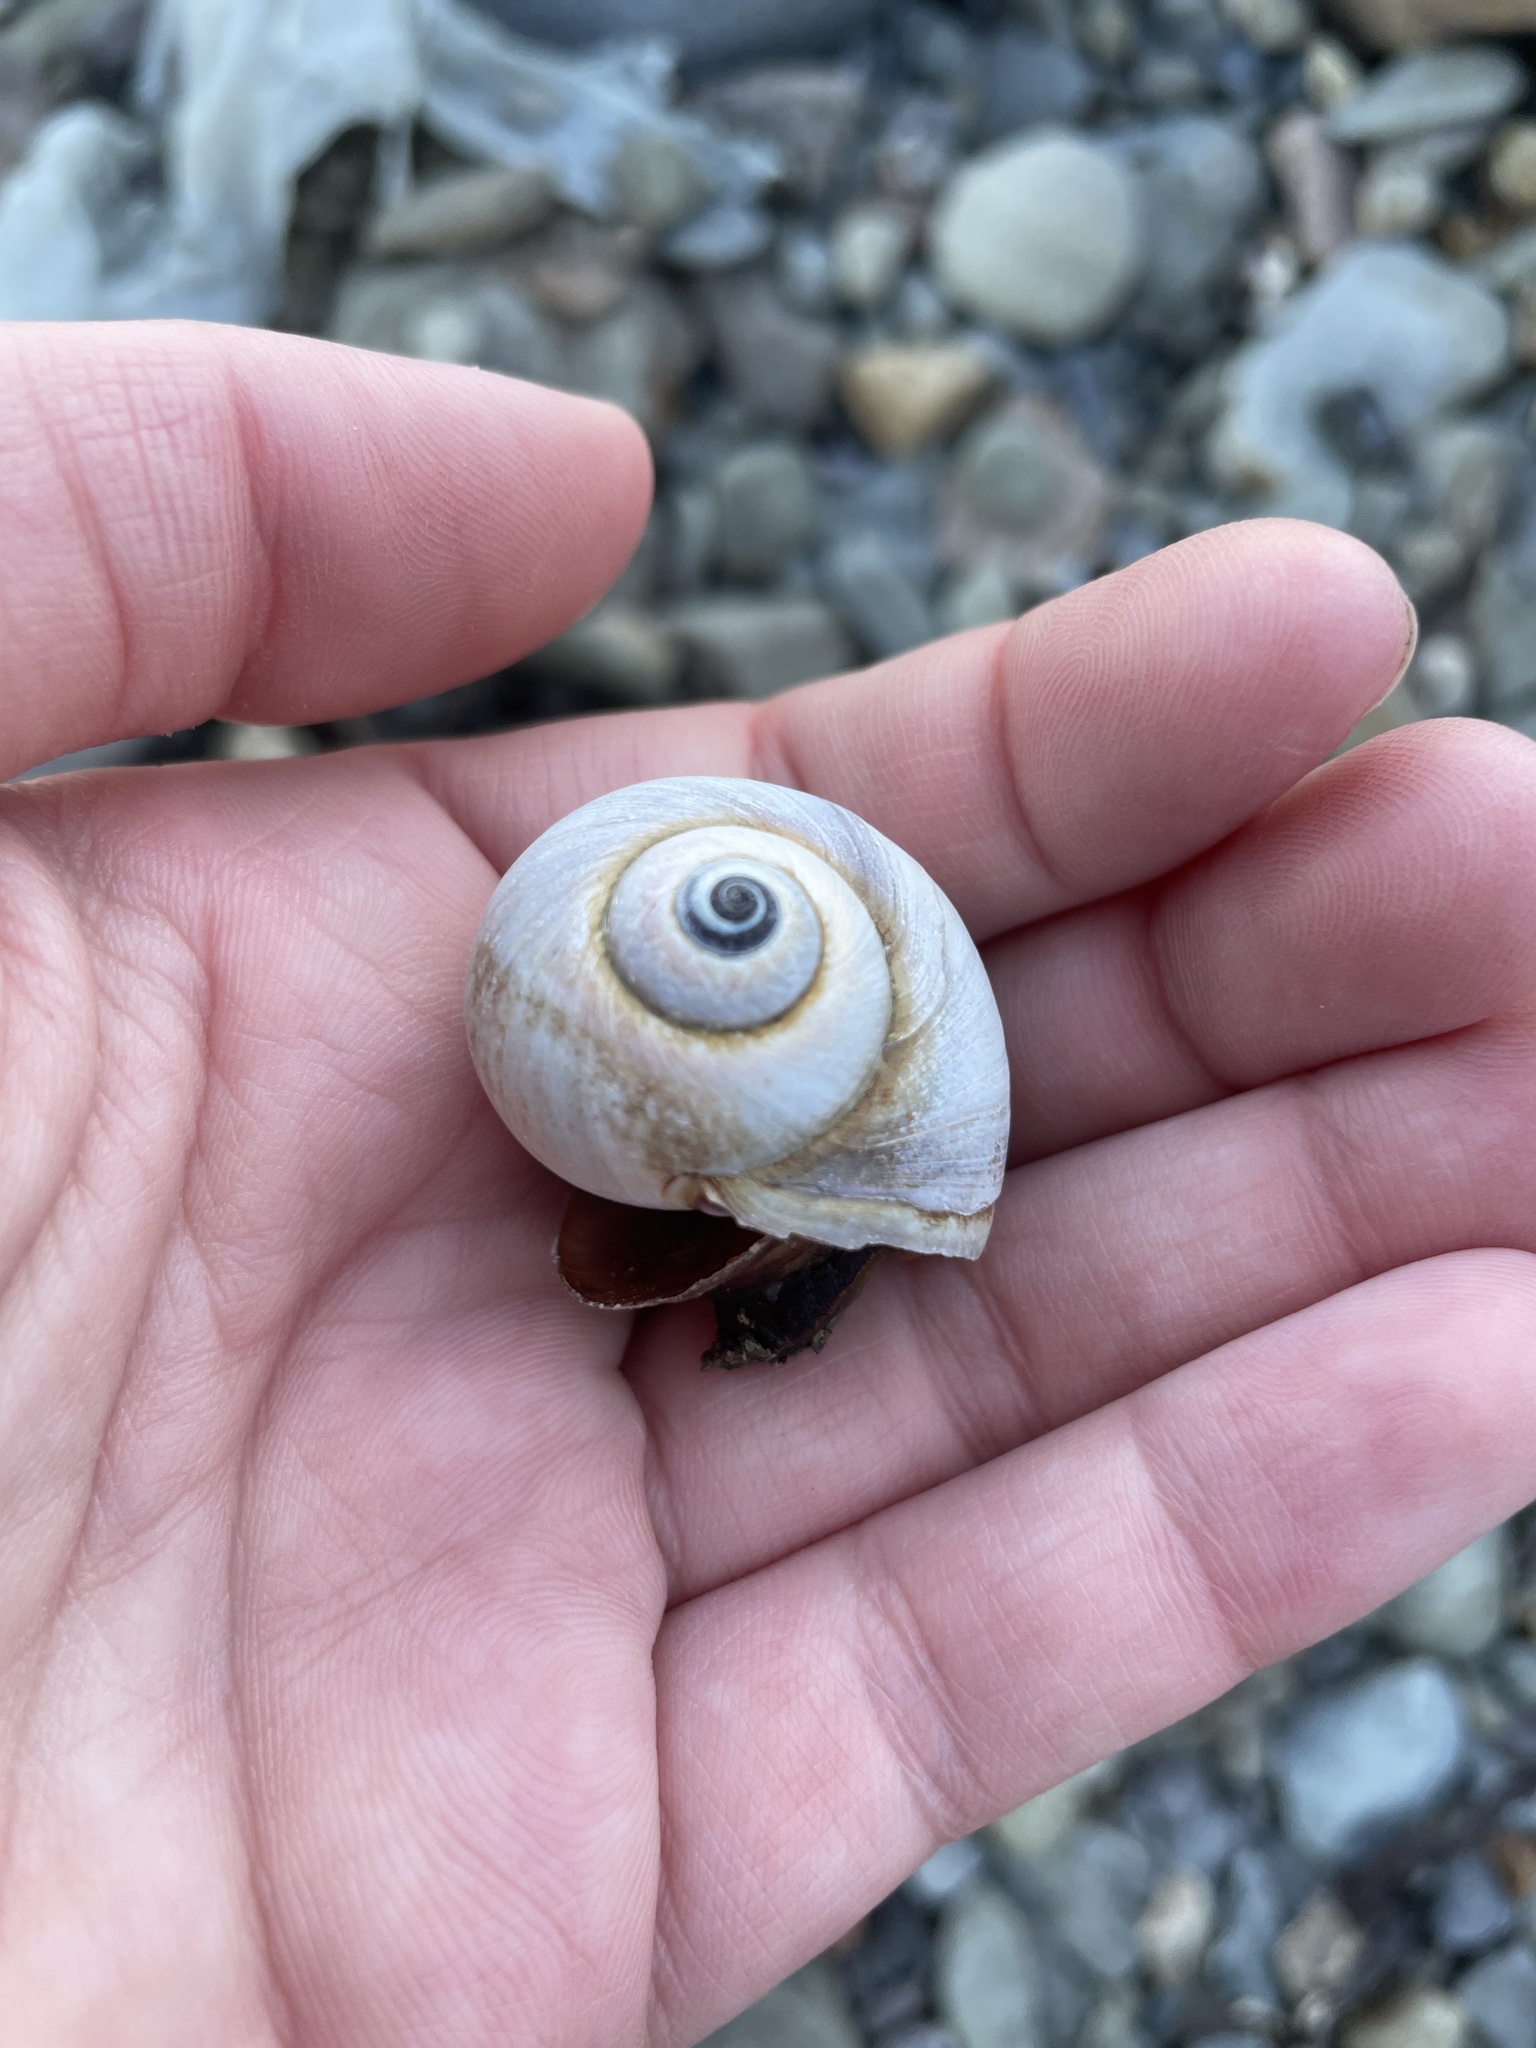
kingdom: Animalia
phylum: Mollusca
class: Gastropoda
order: Littorinimorpha
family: Naticidae
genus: Euspira
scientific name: Euspira heros
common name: Common northern moonsnail
